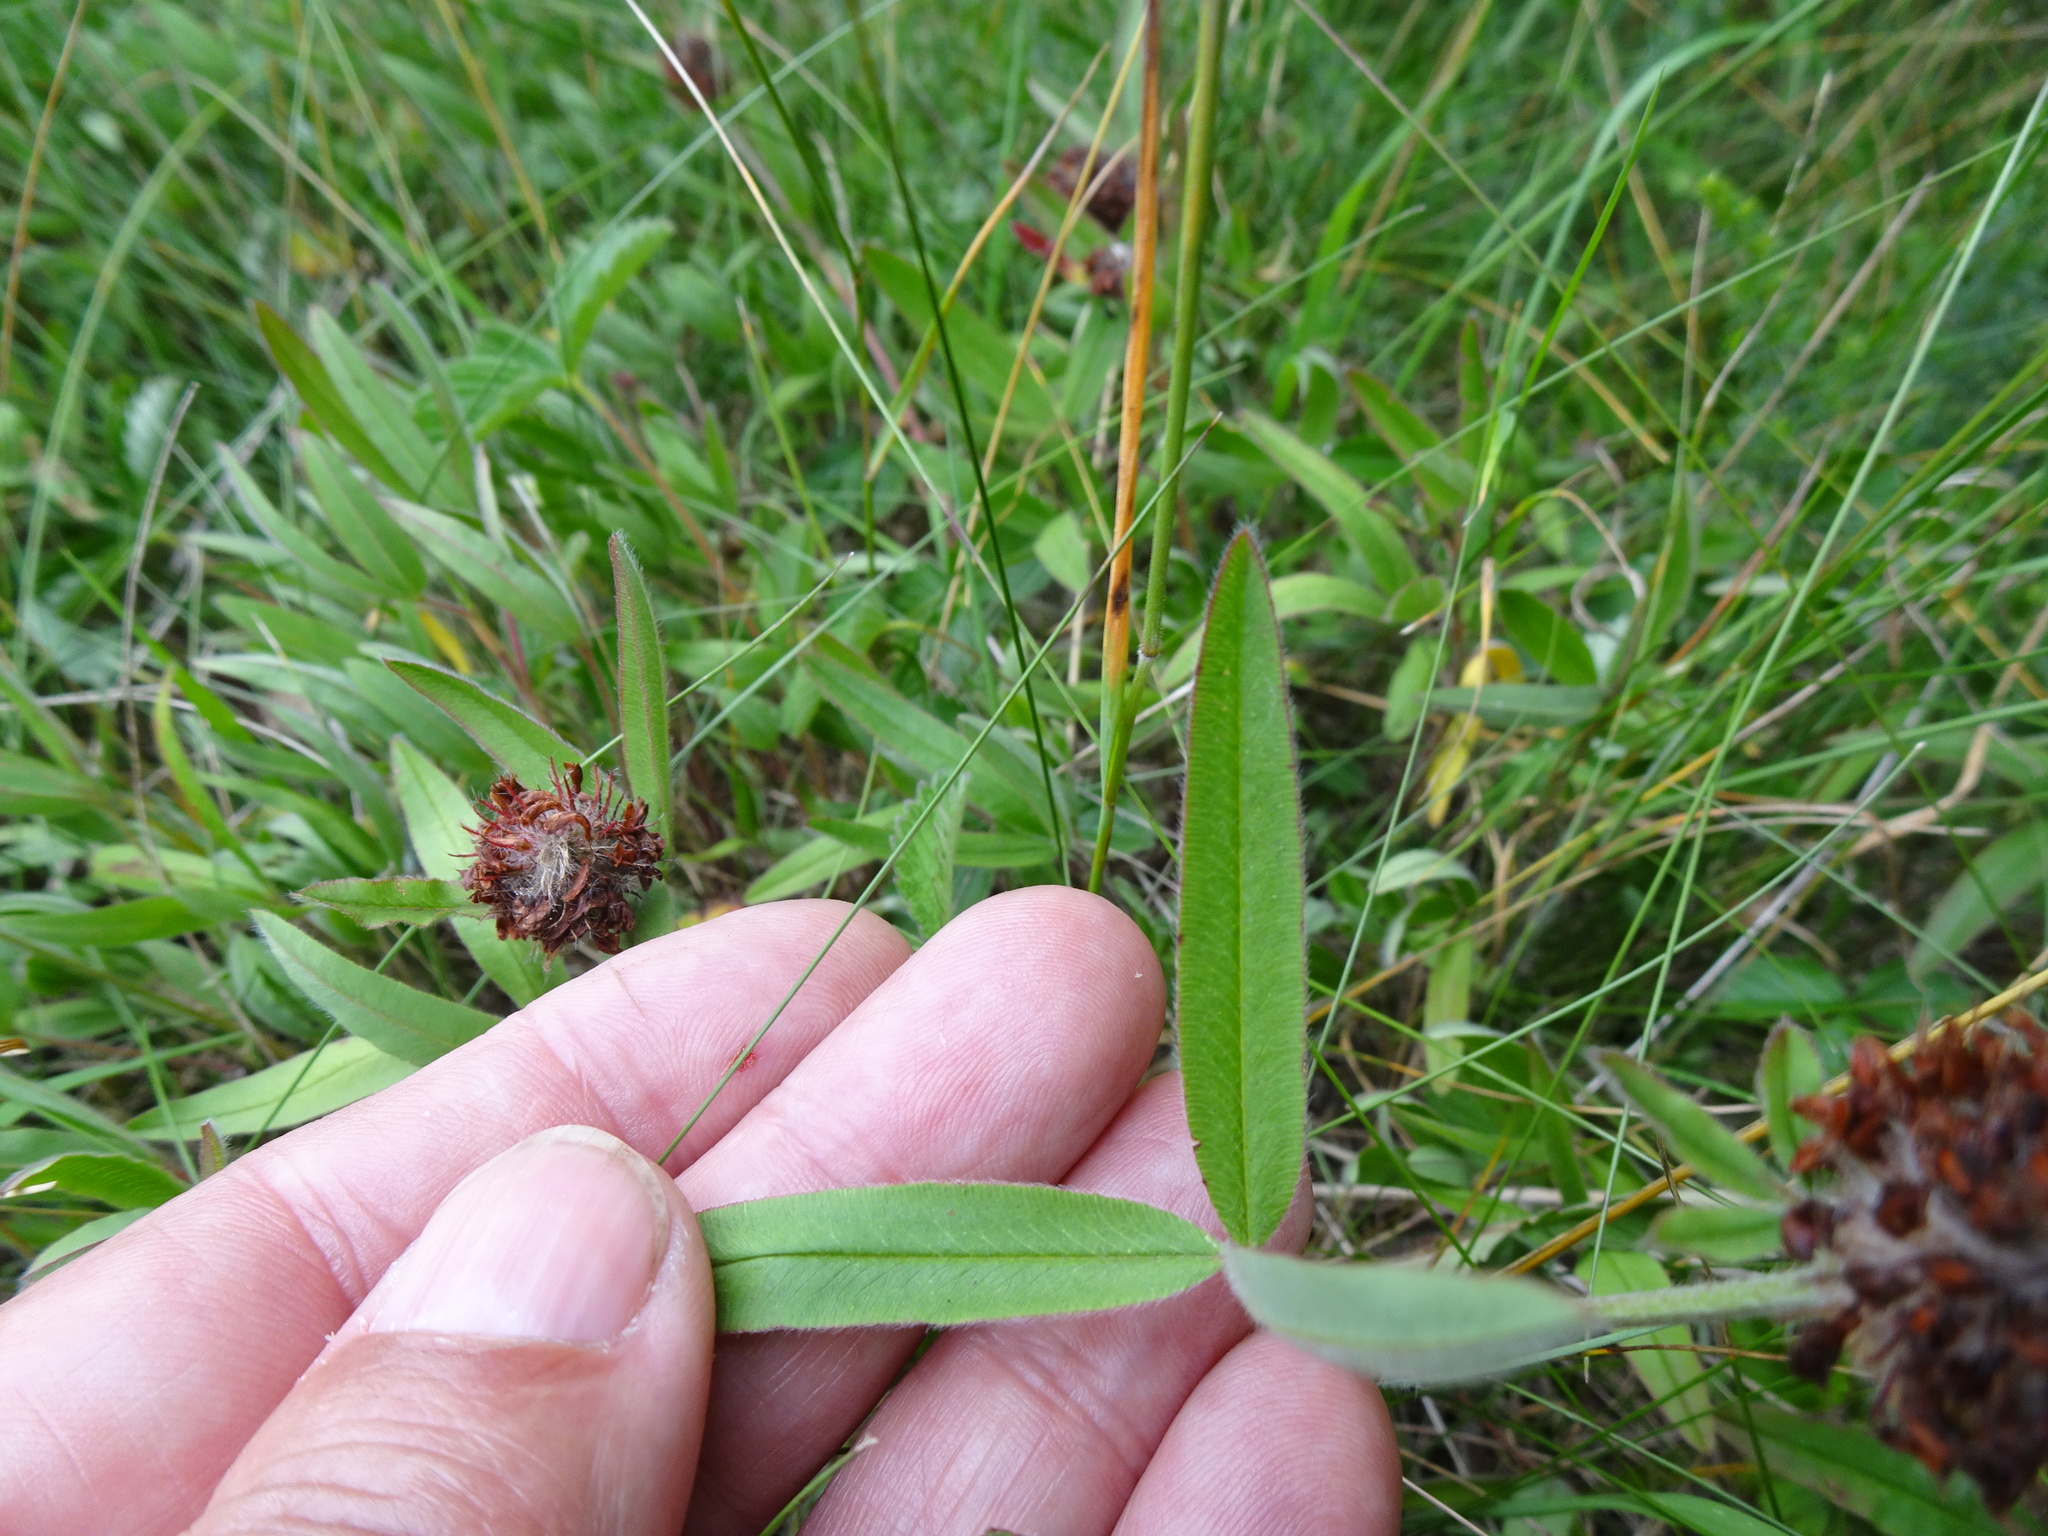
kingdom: Plantae
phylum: Tracheophyta
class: Magnoliopsida
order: Fabales
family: Fabaceae
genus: Trifolium
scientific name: Trifolium alpestre
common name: Owl-head clover
